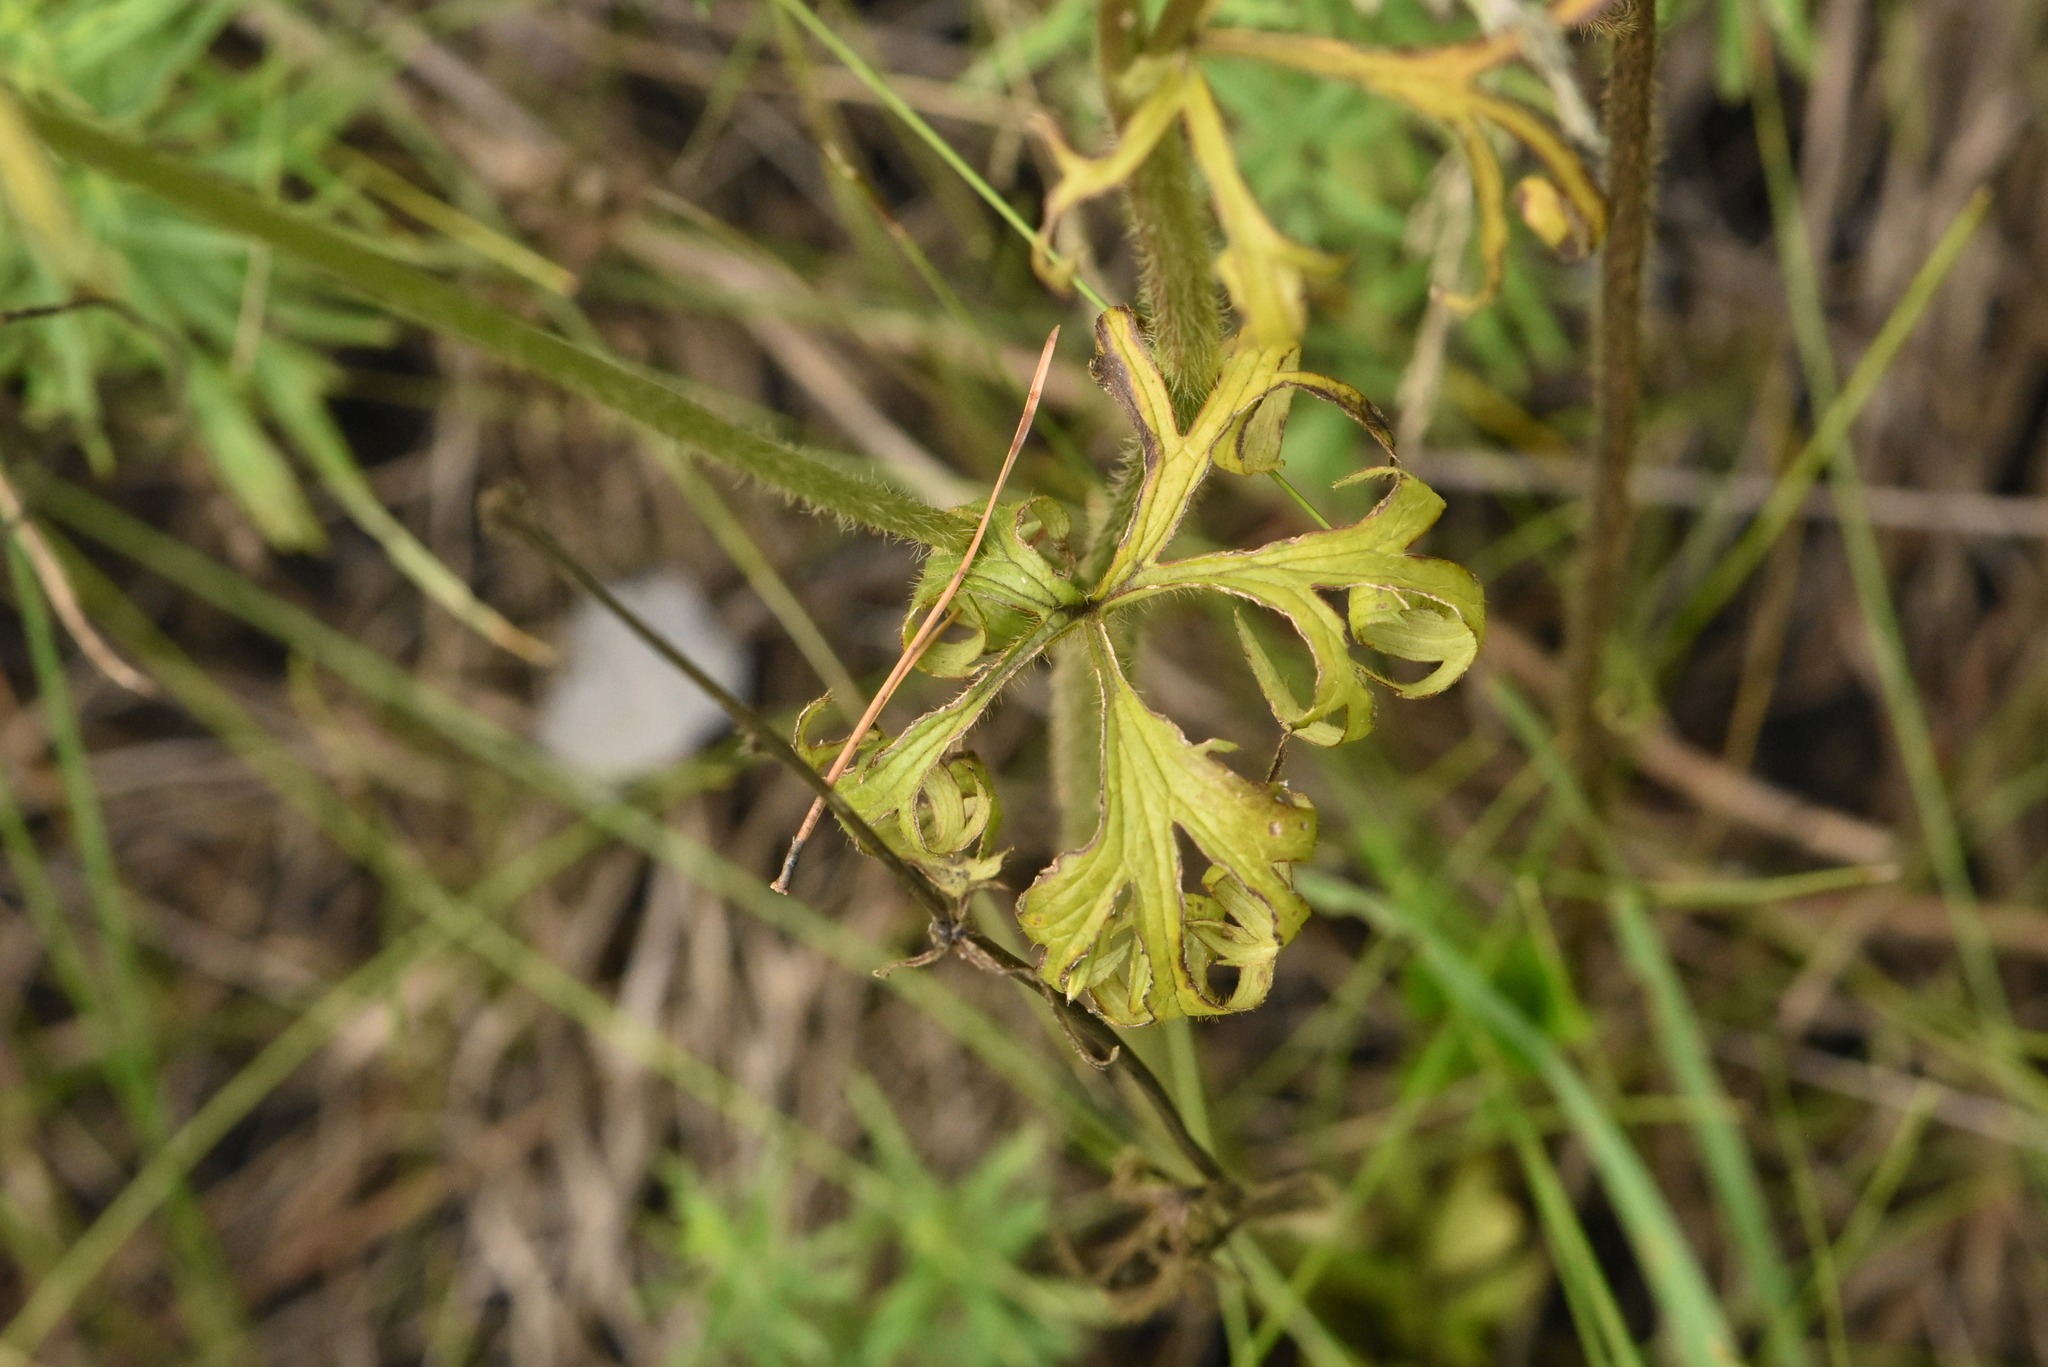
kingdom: Plantae
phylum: Tracheophyta
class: Magnoliopsida
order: Ranunculales
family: Ranunculaceae
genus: Ranunculus
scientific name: Ranunculus polyanthemos
